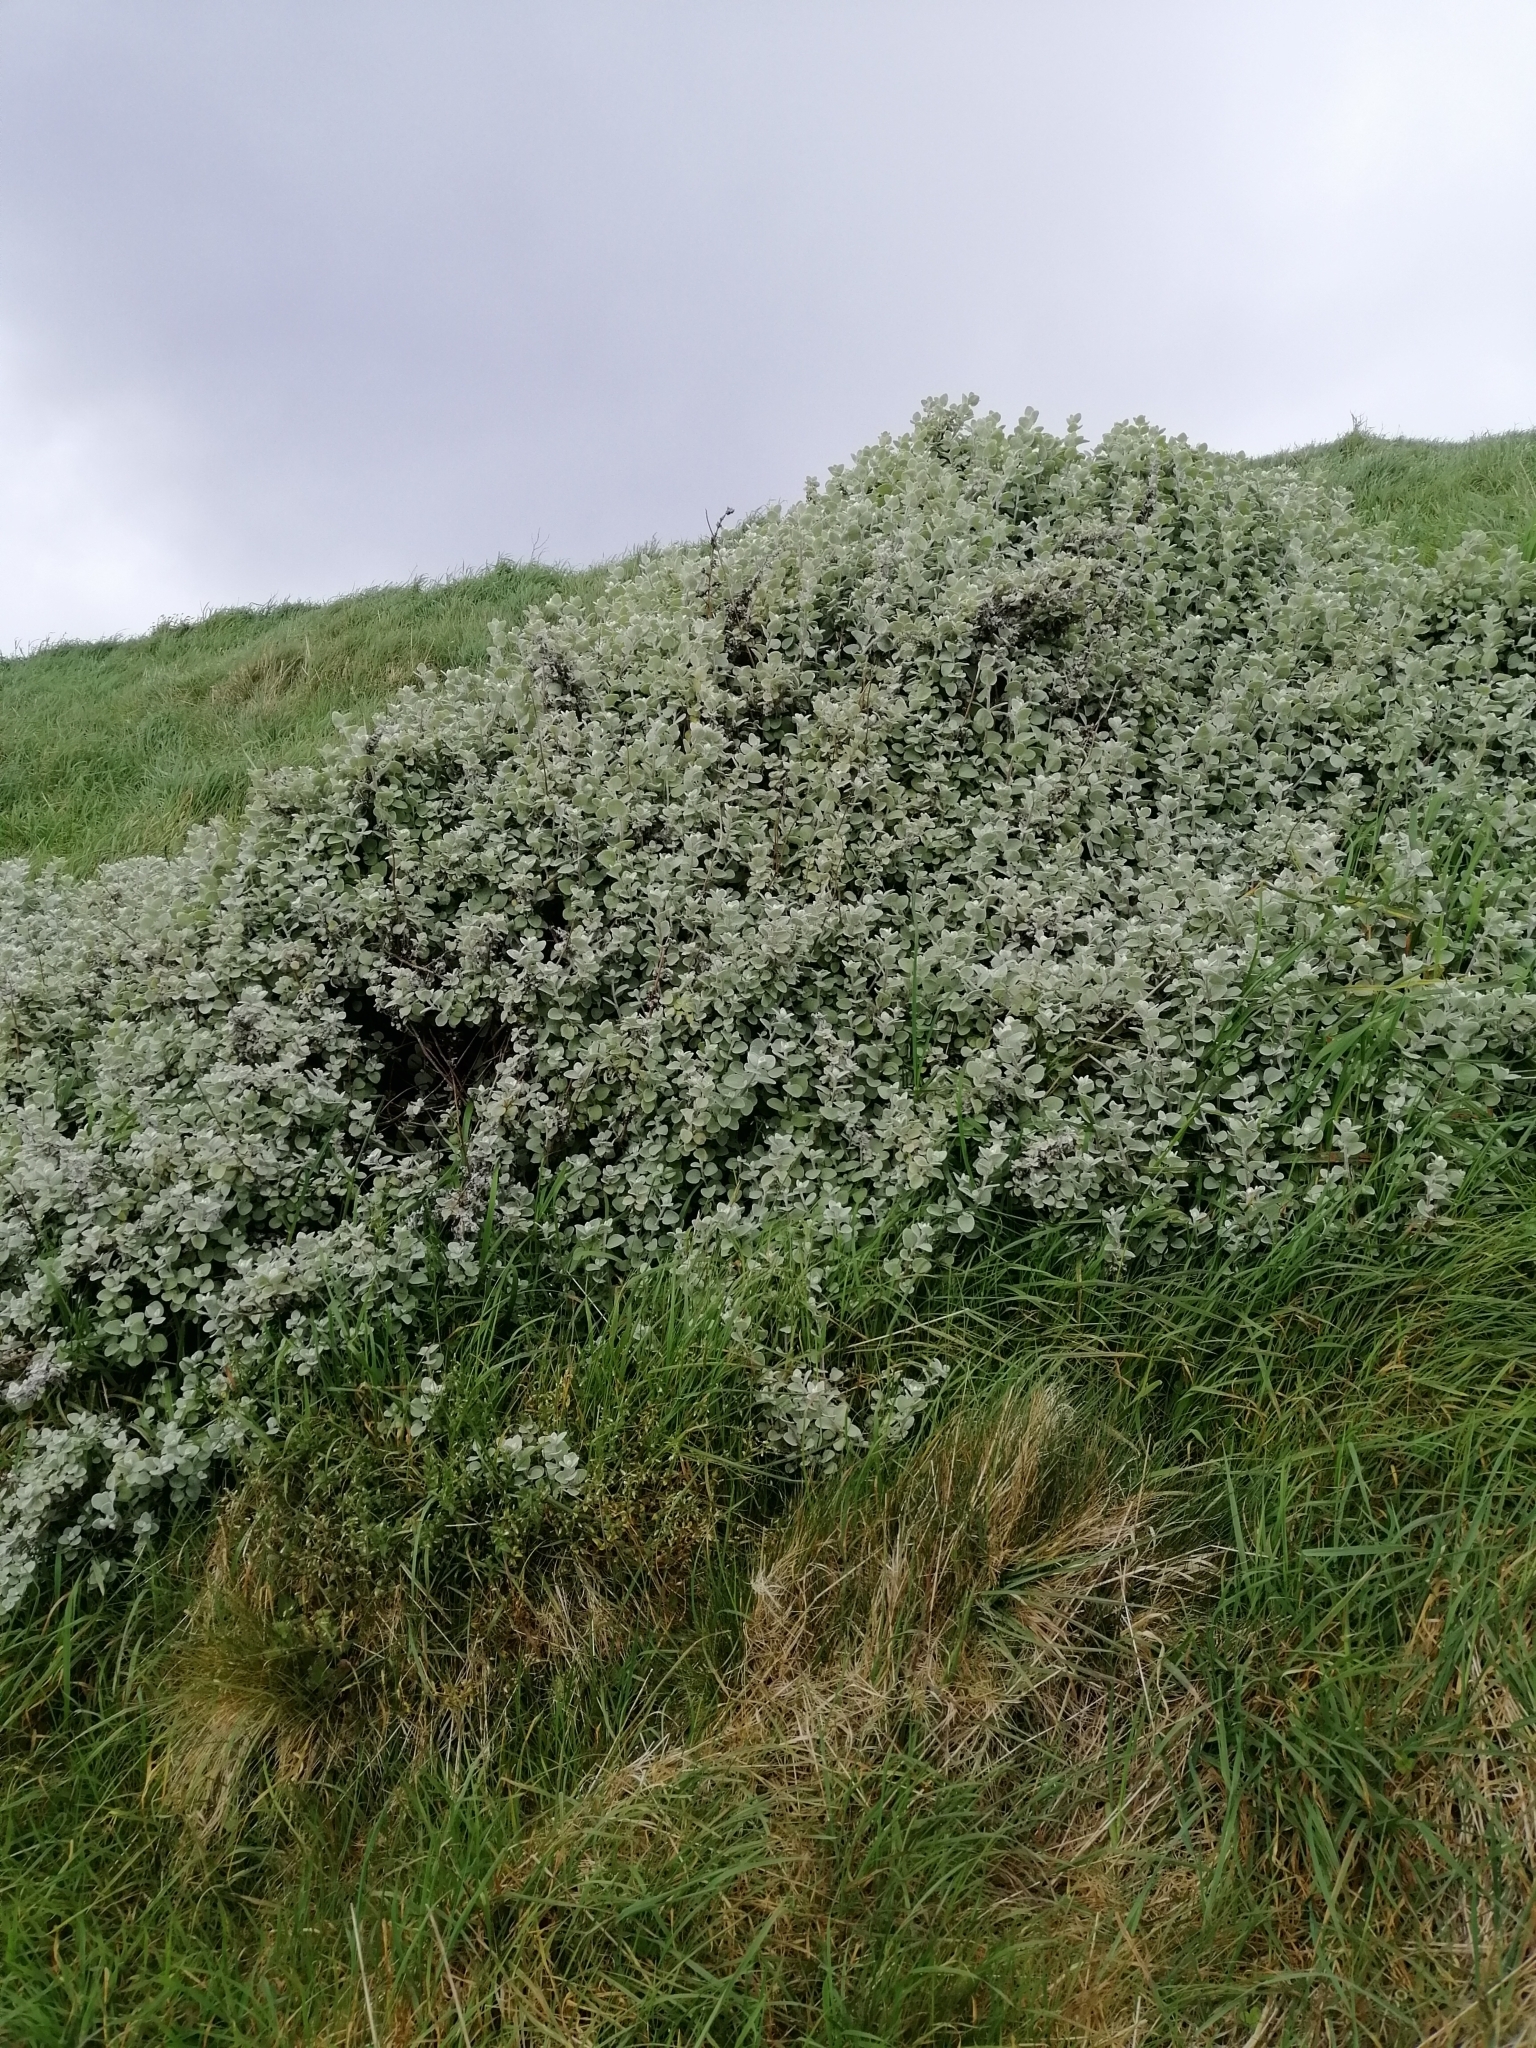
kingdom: Plantae
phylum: Tracheophyta
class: Magnoliopsida
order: Asterales
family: Asteraceae
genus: Helichrysum
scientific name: Helichrysum petiolare
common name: Licorice-plant
